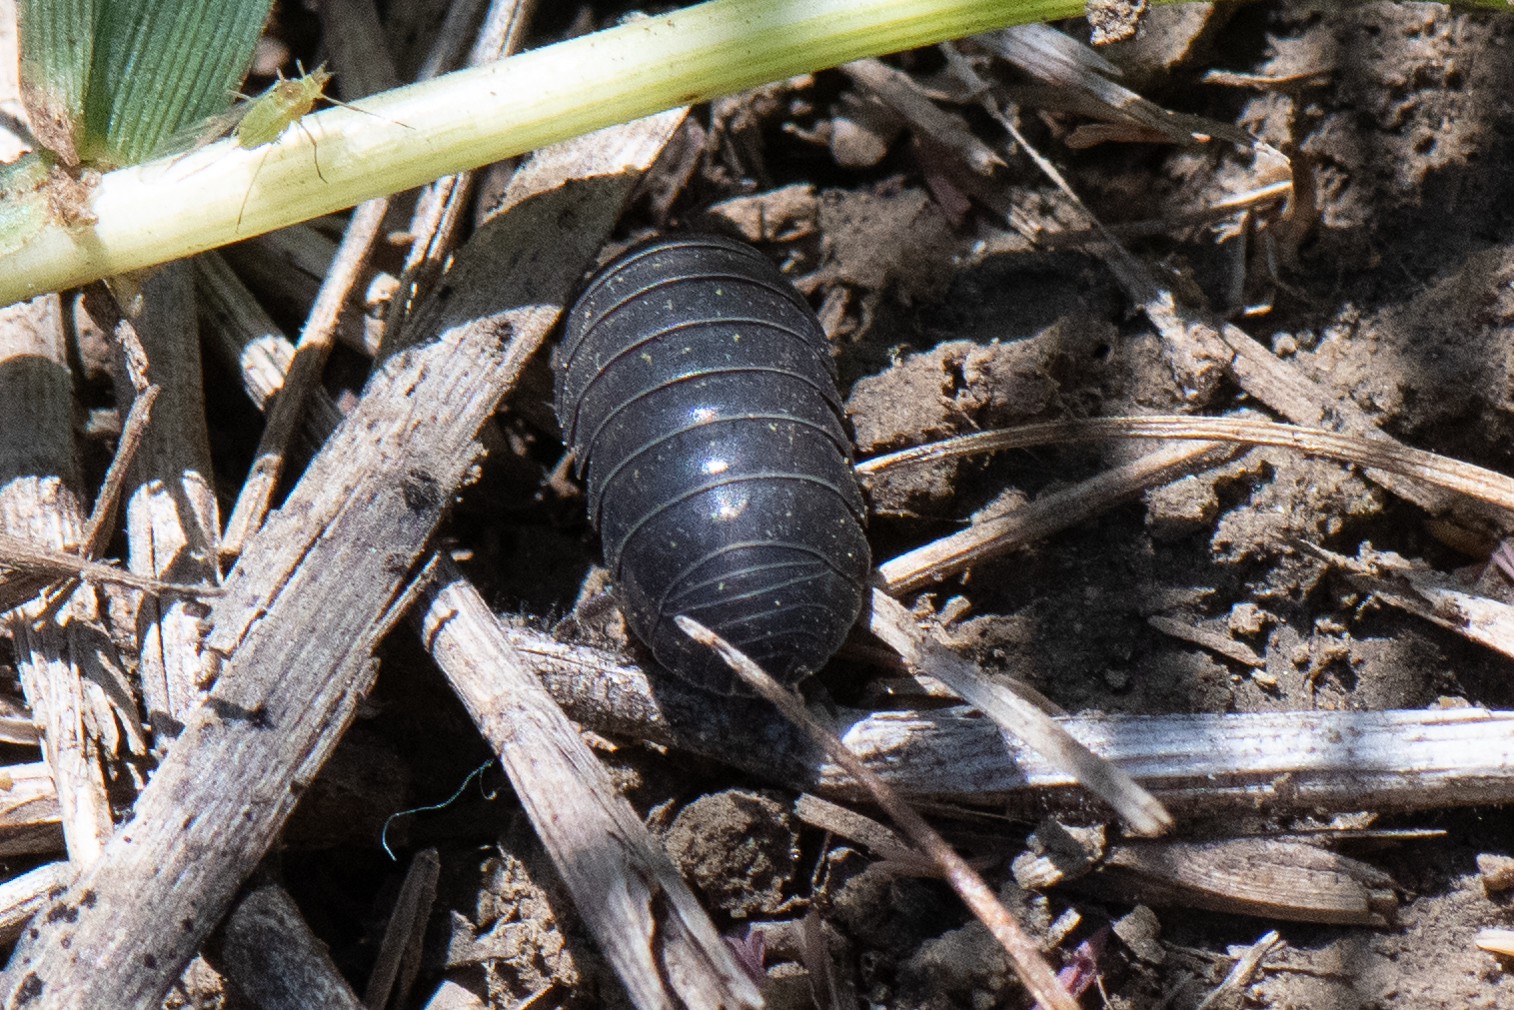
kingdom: Animalia
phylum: Arthropoda
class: Malacostraca
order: Isopoda
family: Armadillidiidae
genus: Armadillidium
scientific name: Armadillidium vulgare
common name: Common pill woodlouse
